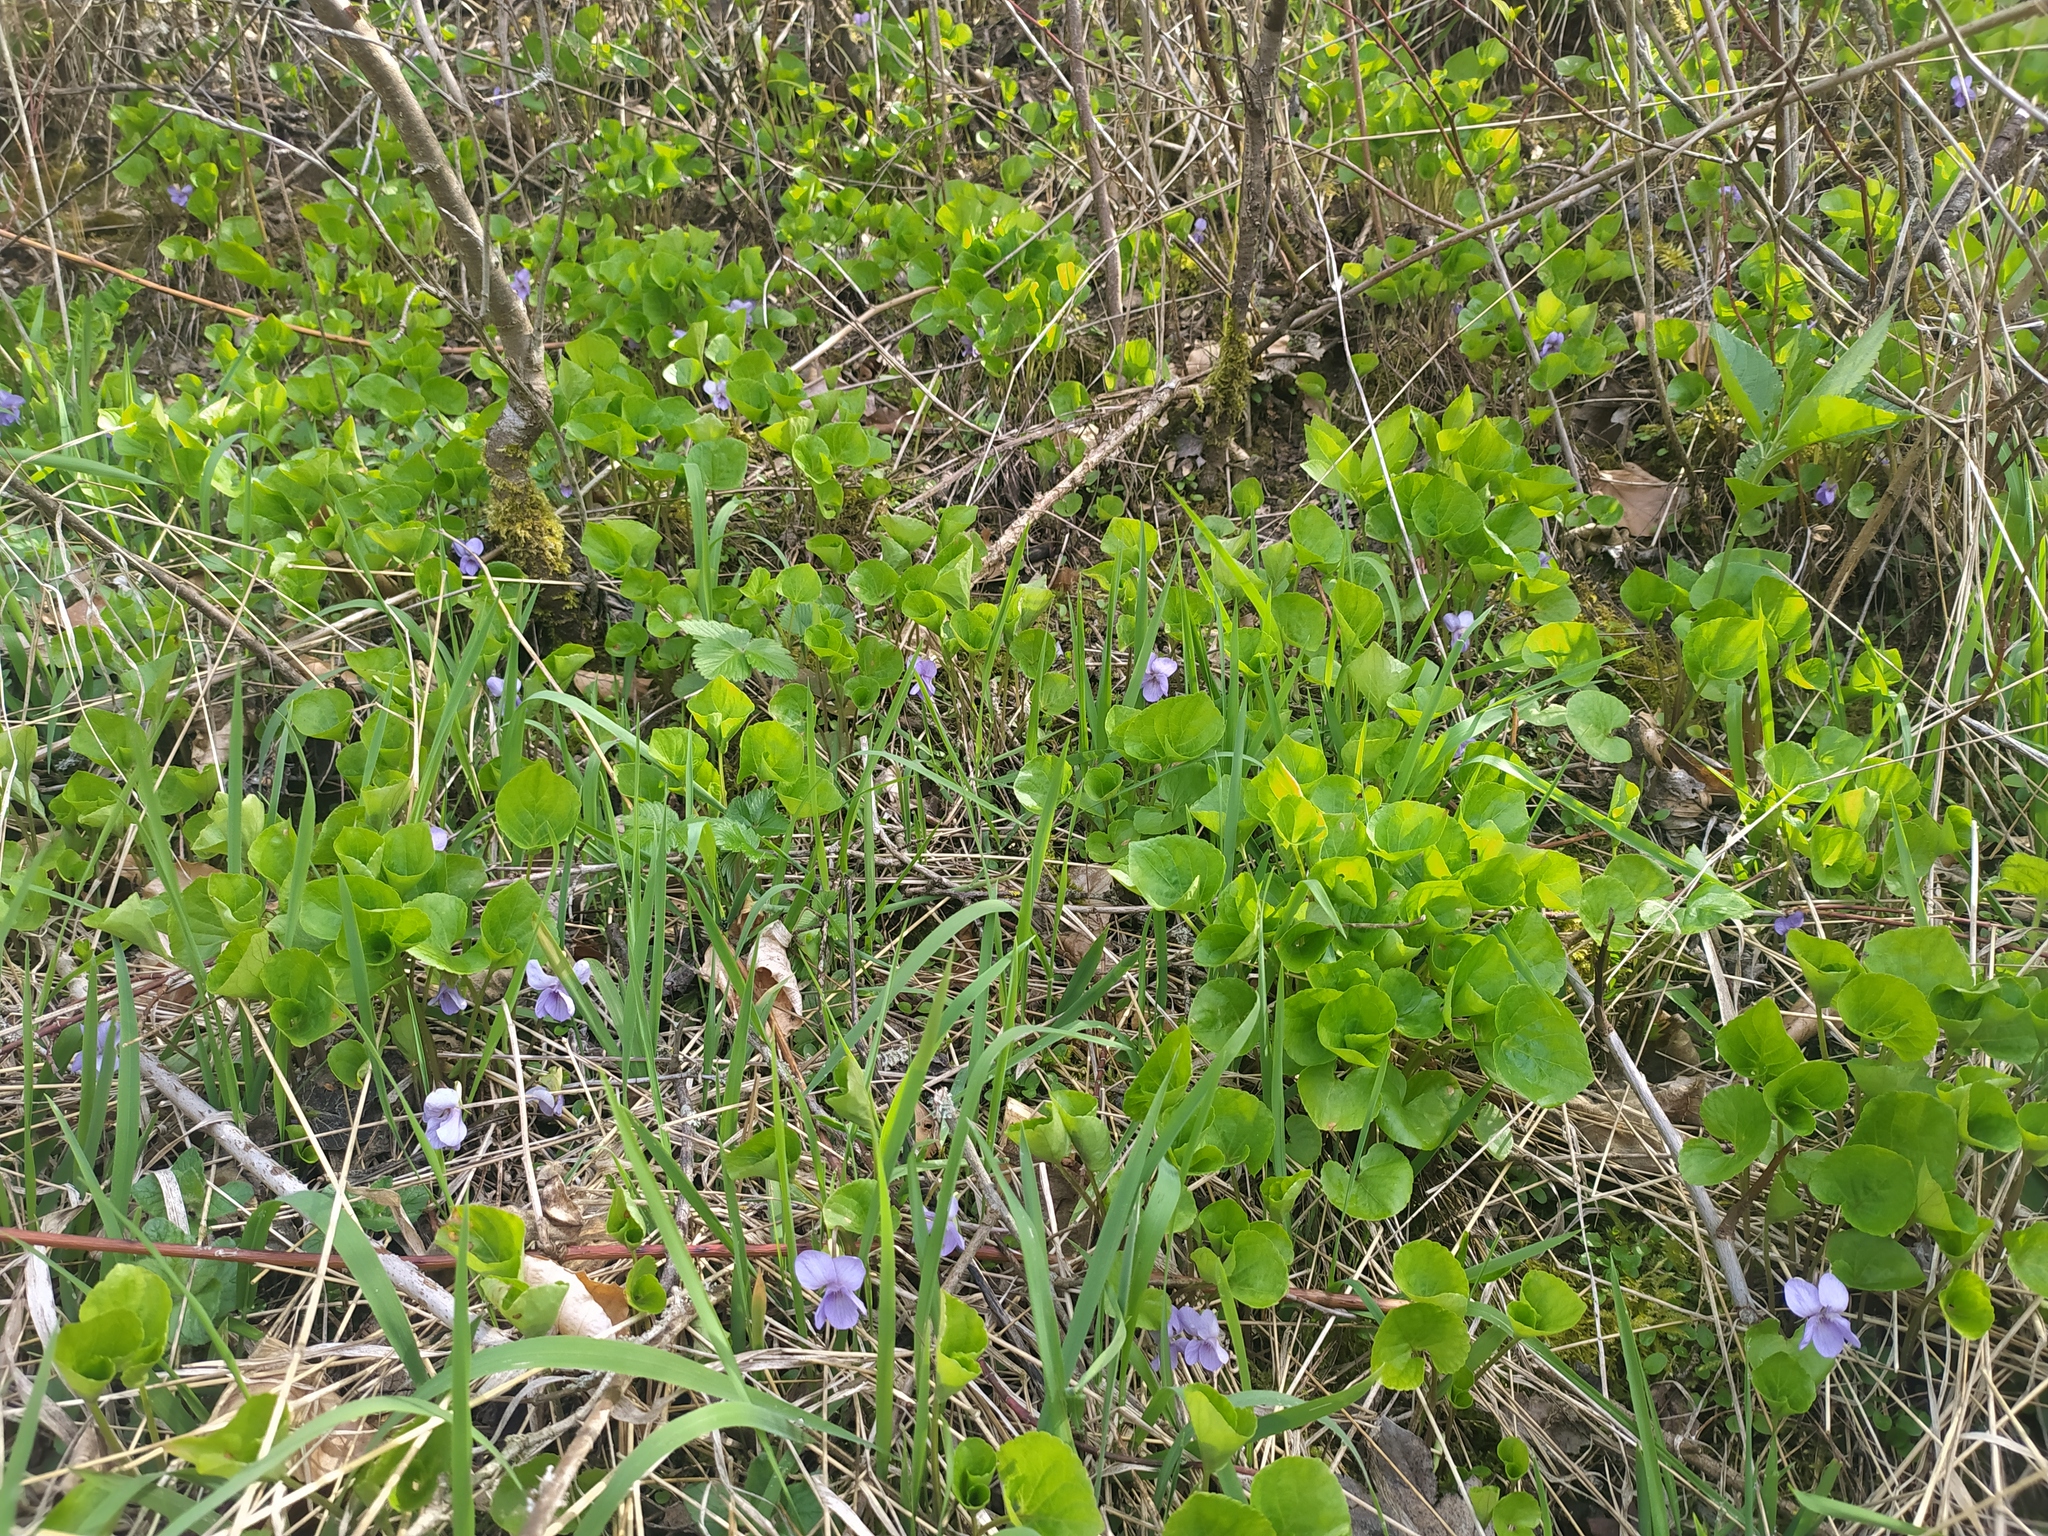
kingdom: Plantae
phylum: Tracheophyta
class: Magnoliopsida
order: Malpighiales
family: Violaceae
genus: Viola
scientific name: Viola mirabilis
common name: Wonder violet
